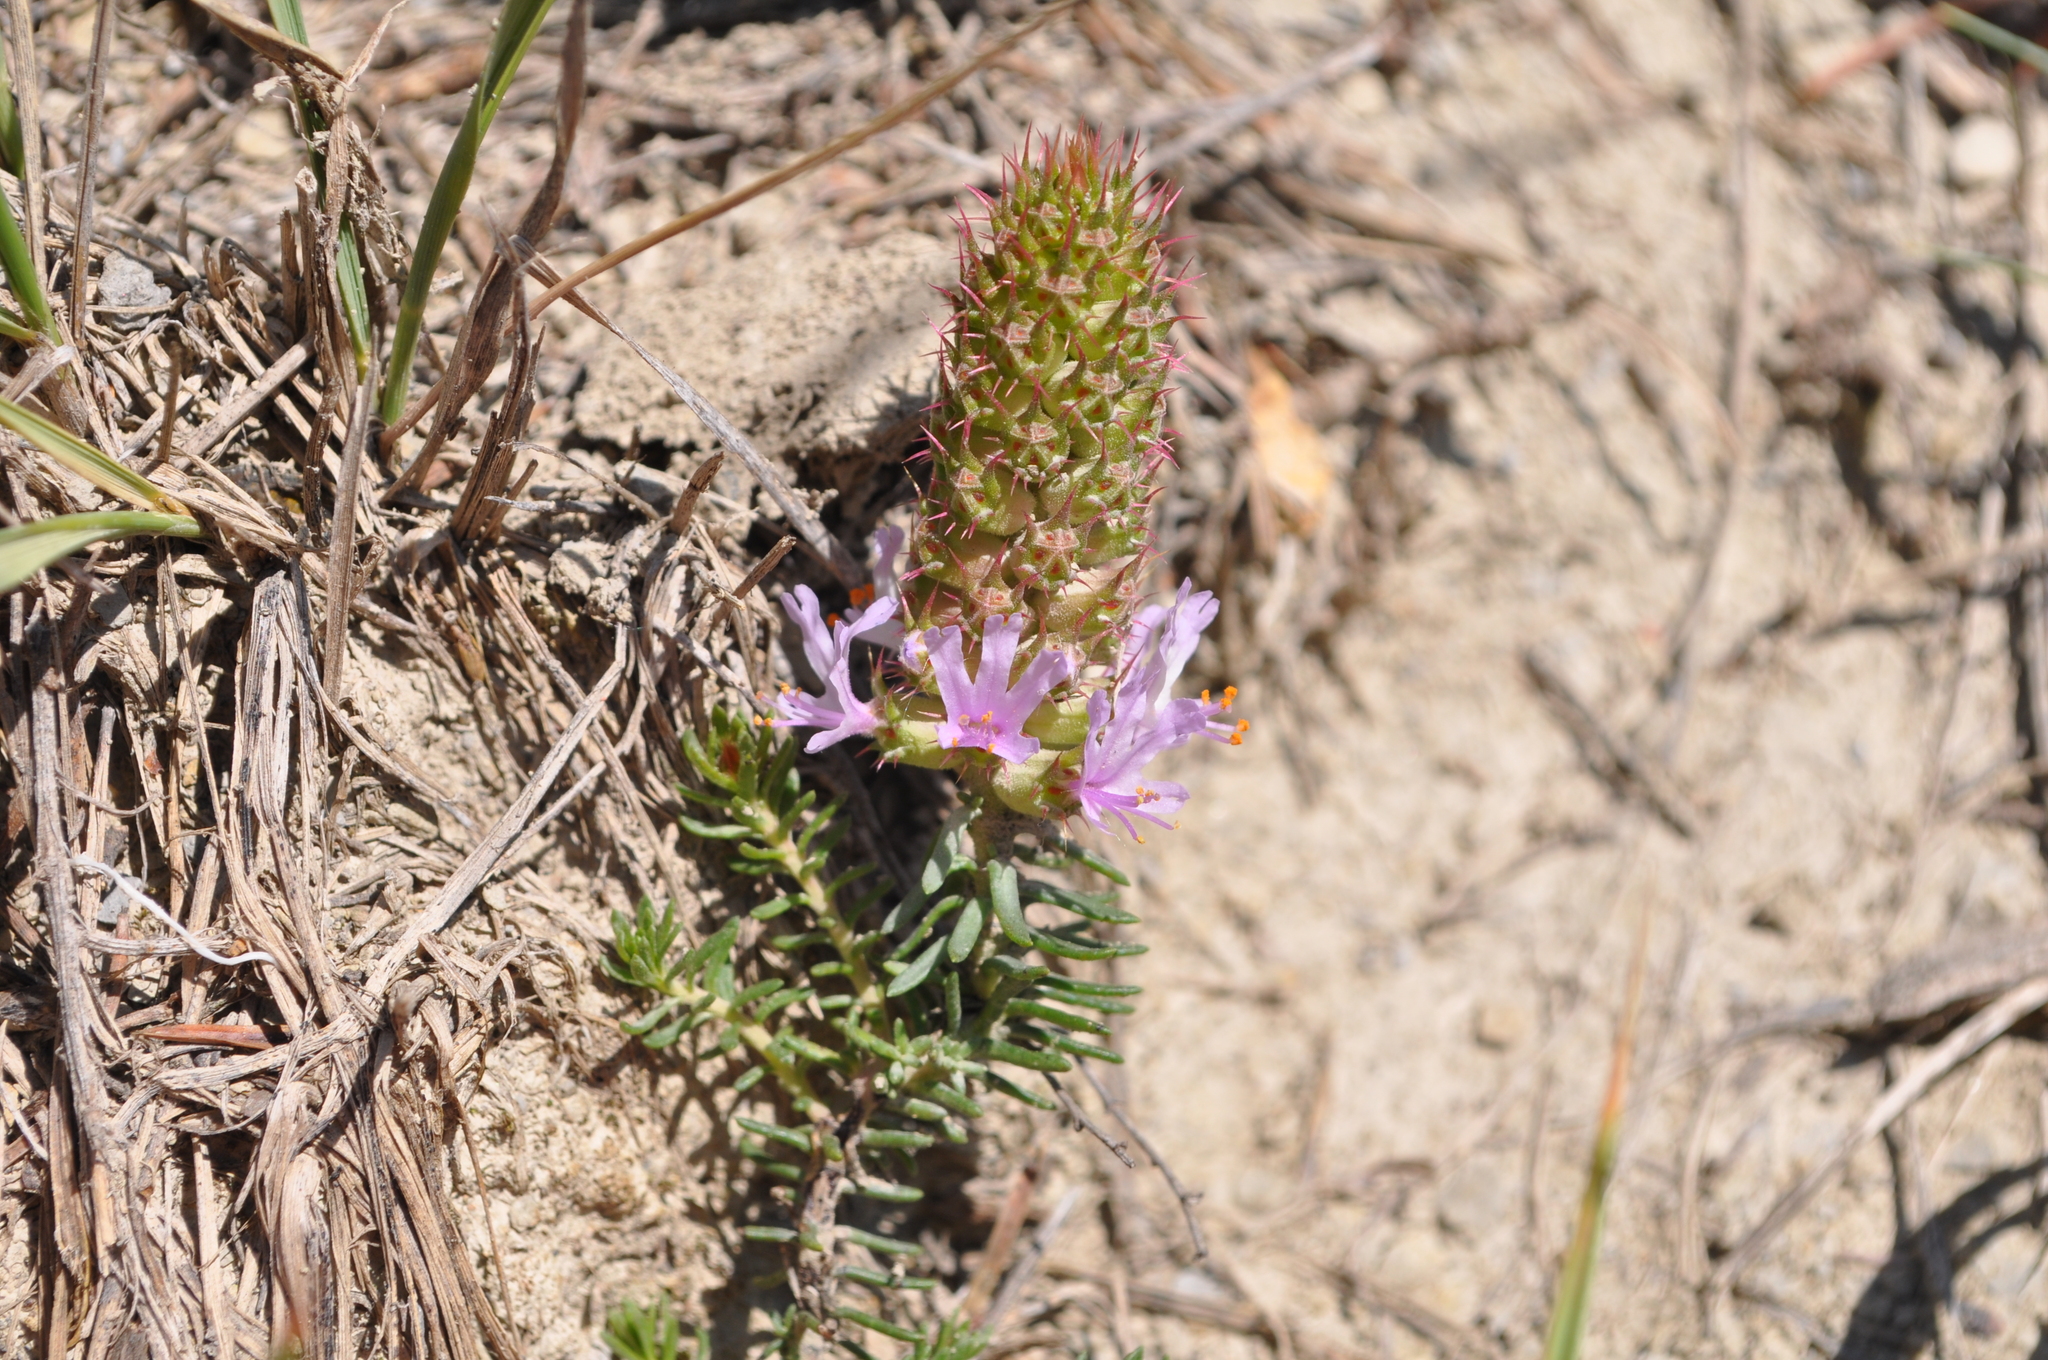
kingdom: Plantae
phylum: Tracheophyta
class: Magnoliopsida
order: Ericales
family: Primulaceae
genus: Coris
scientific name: Coris monspeliensis
